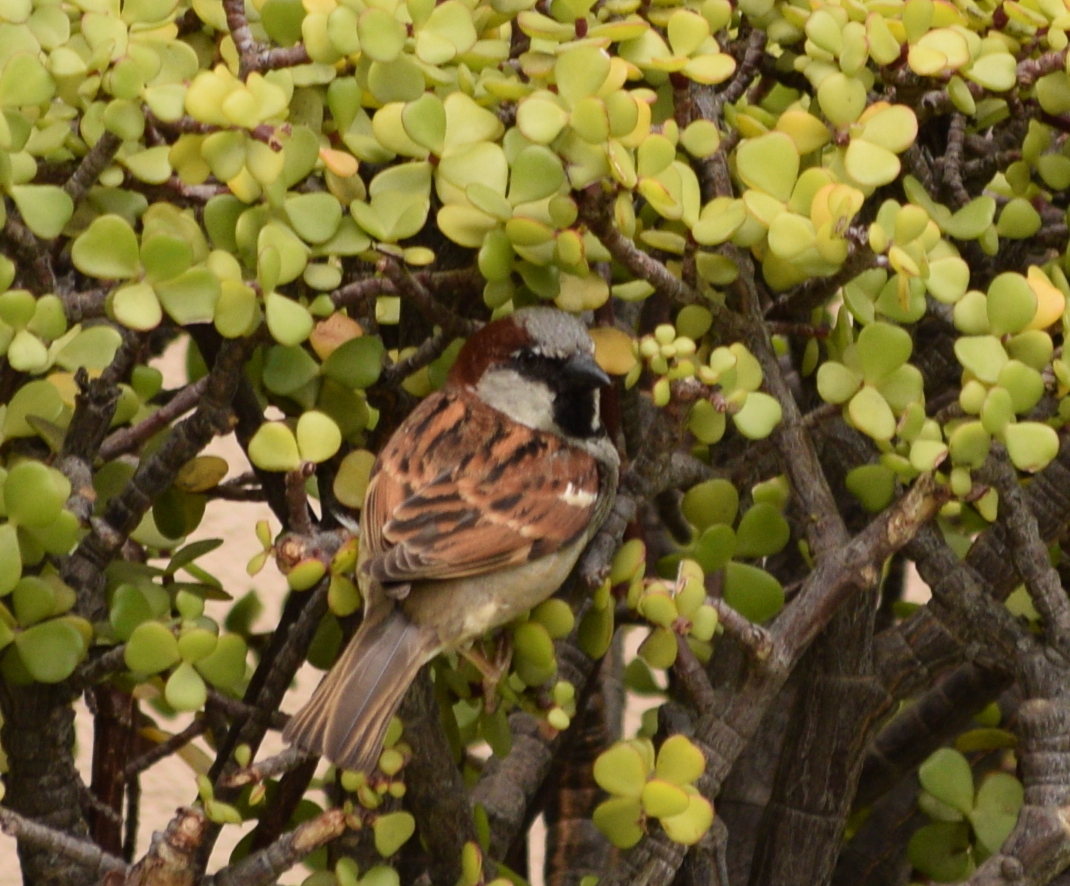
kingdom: Animalia
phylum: Chordata
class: Aves
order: Passeriformes
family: Passeridae
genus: Passer
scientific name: Passer domesticus
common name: House sparrow
